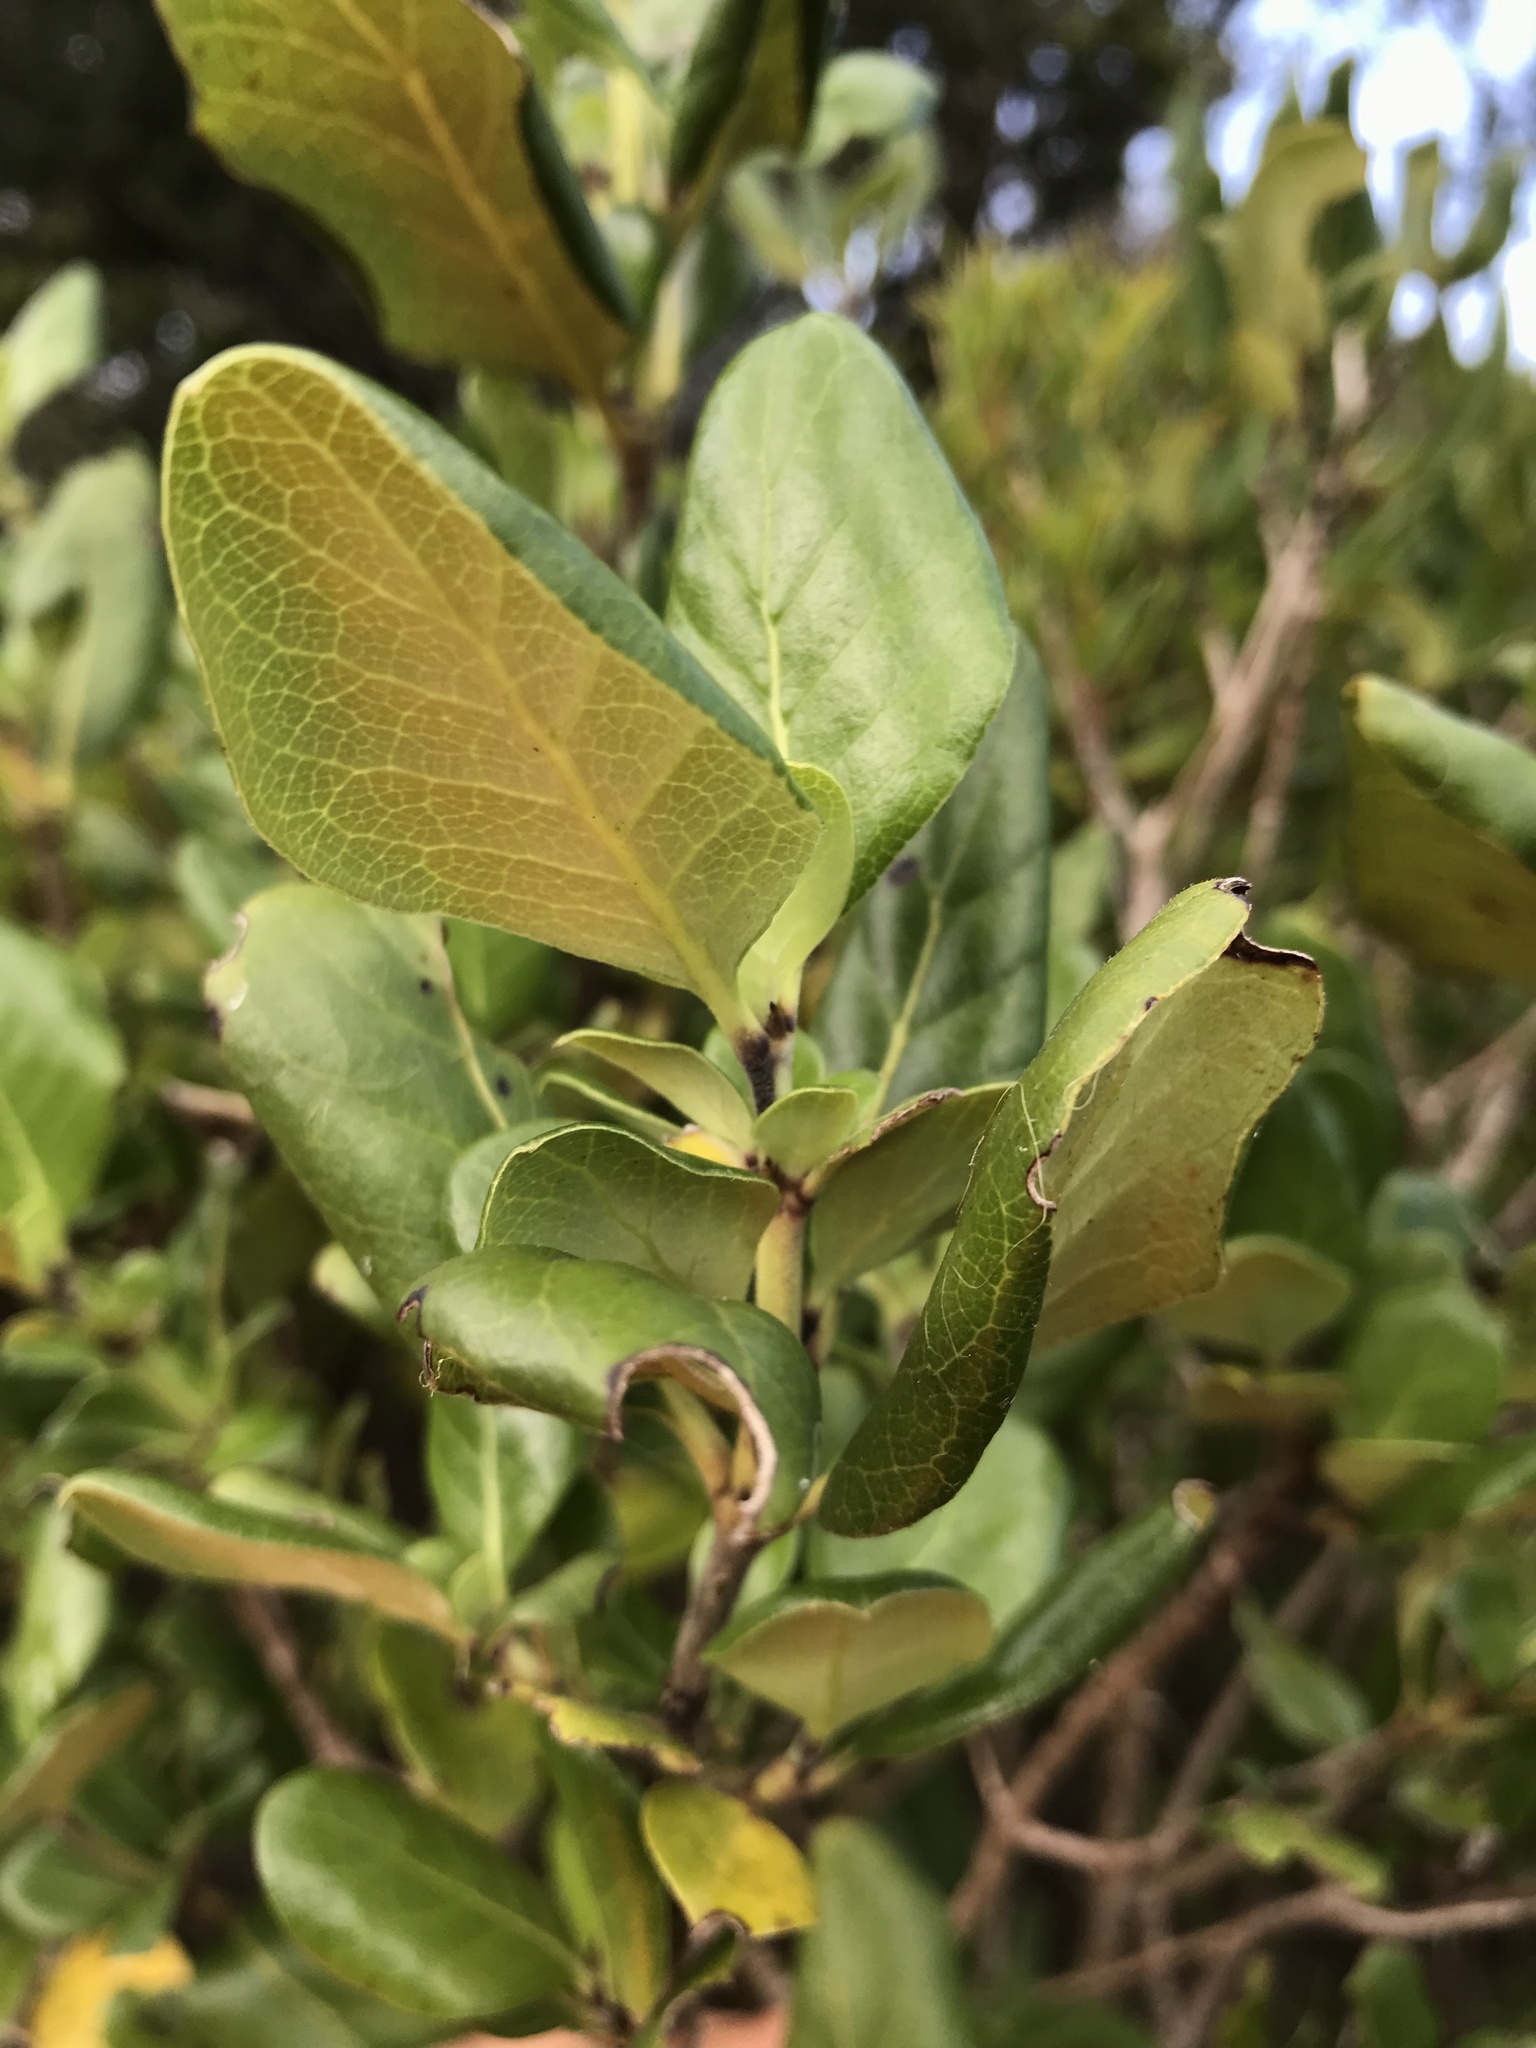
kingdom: Plantae
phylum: Tracheophyta
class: Magnoliopsida
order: Gentianales
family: Rubiaceae
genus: Coprosma
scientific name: Coprosma chathamica
